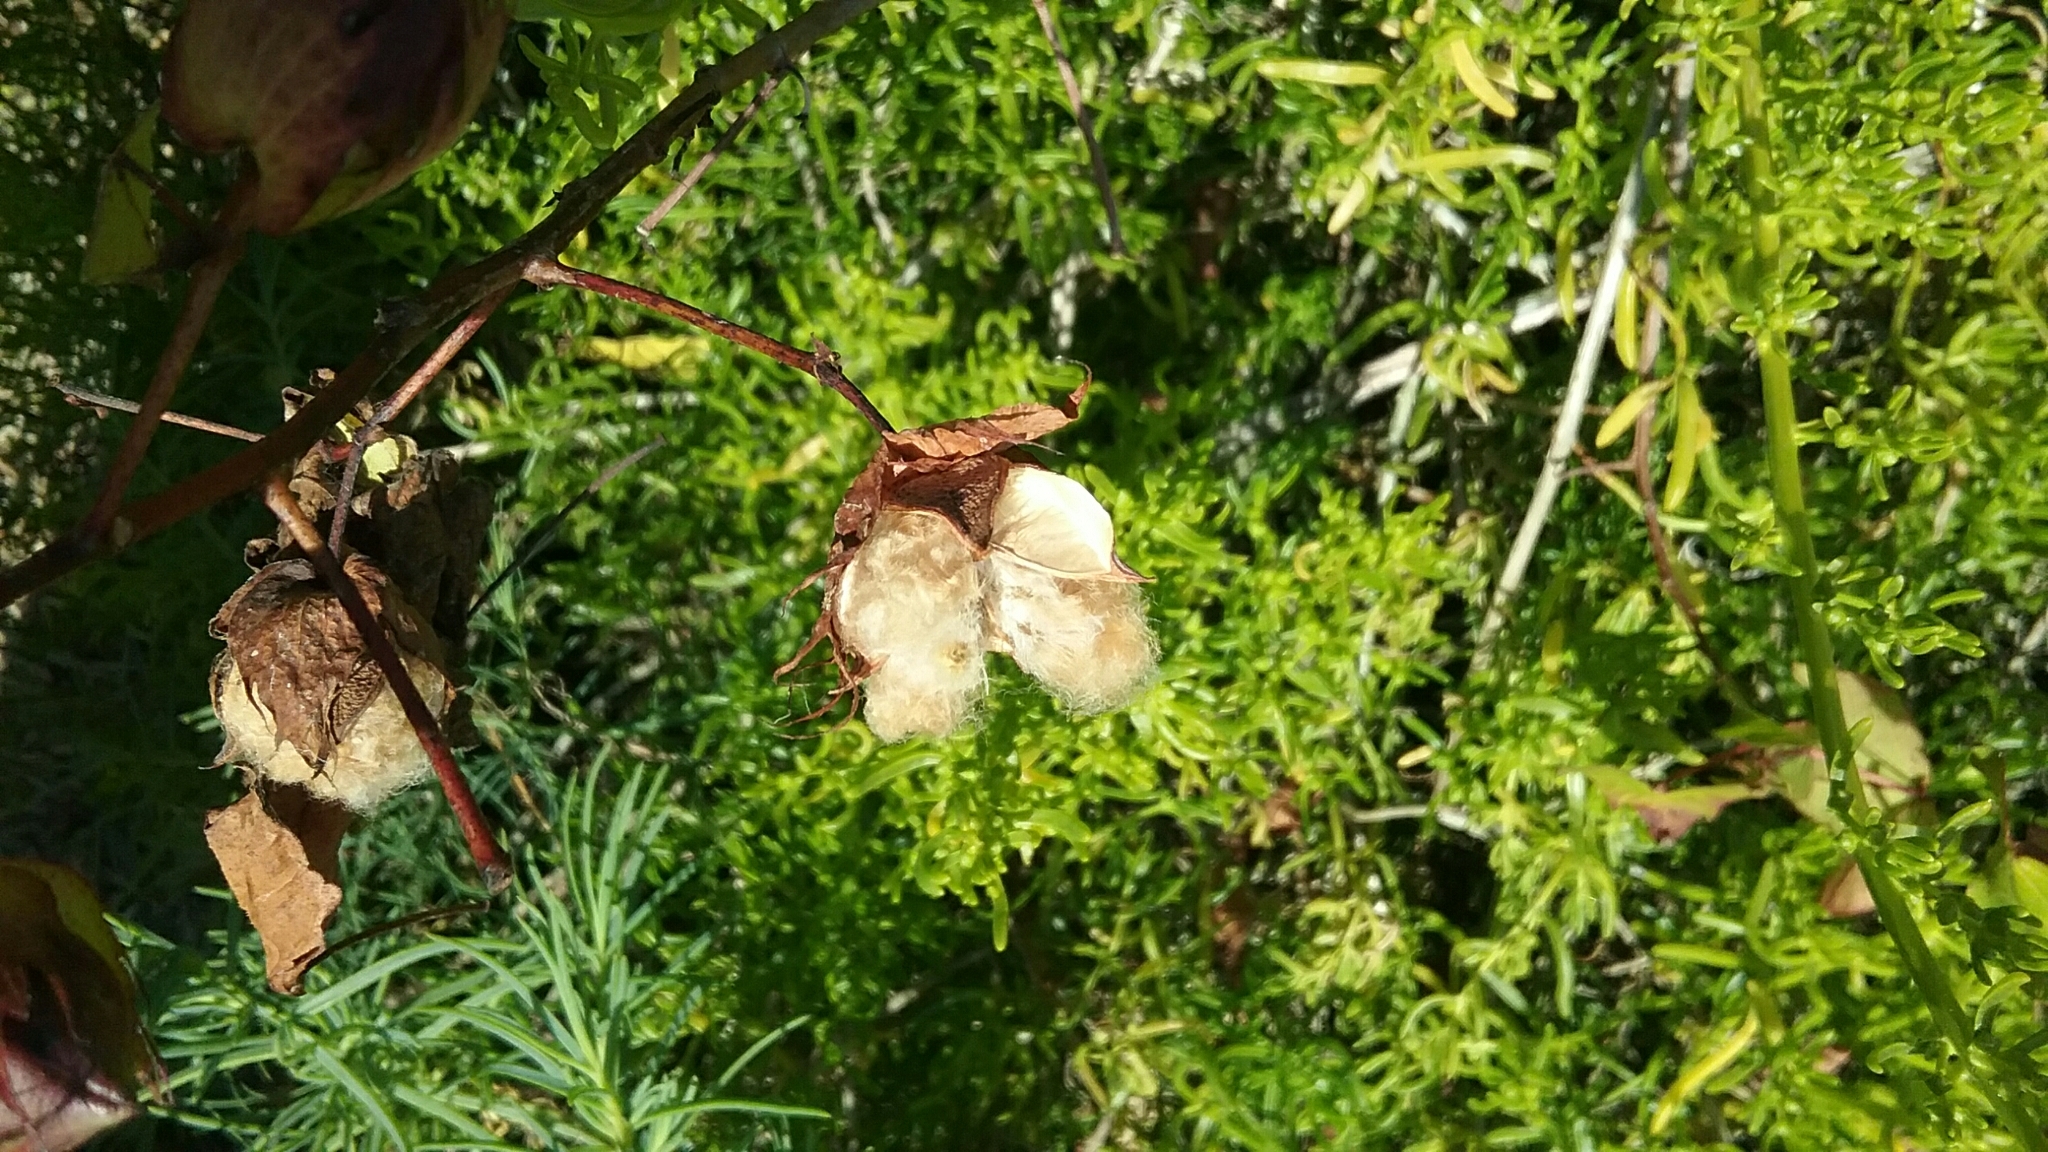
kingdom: Plantae
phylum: Tracheophyta
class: Magnoliopsida
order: Malvales
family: Malvaceae
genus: Gossypium
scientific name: Gossypium hirsutum
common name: Cotton
